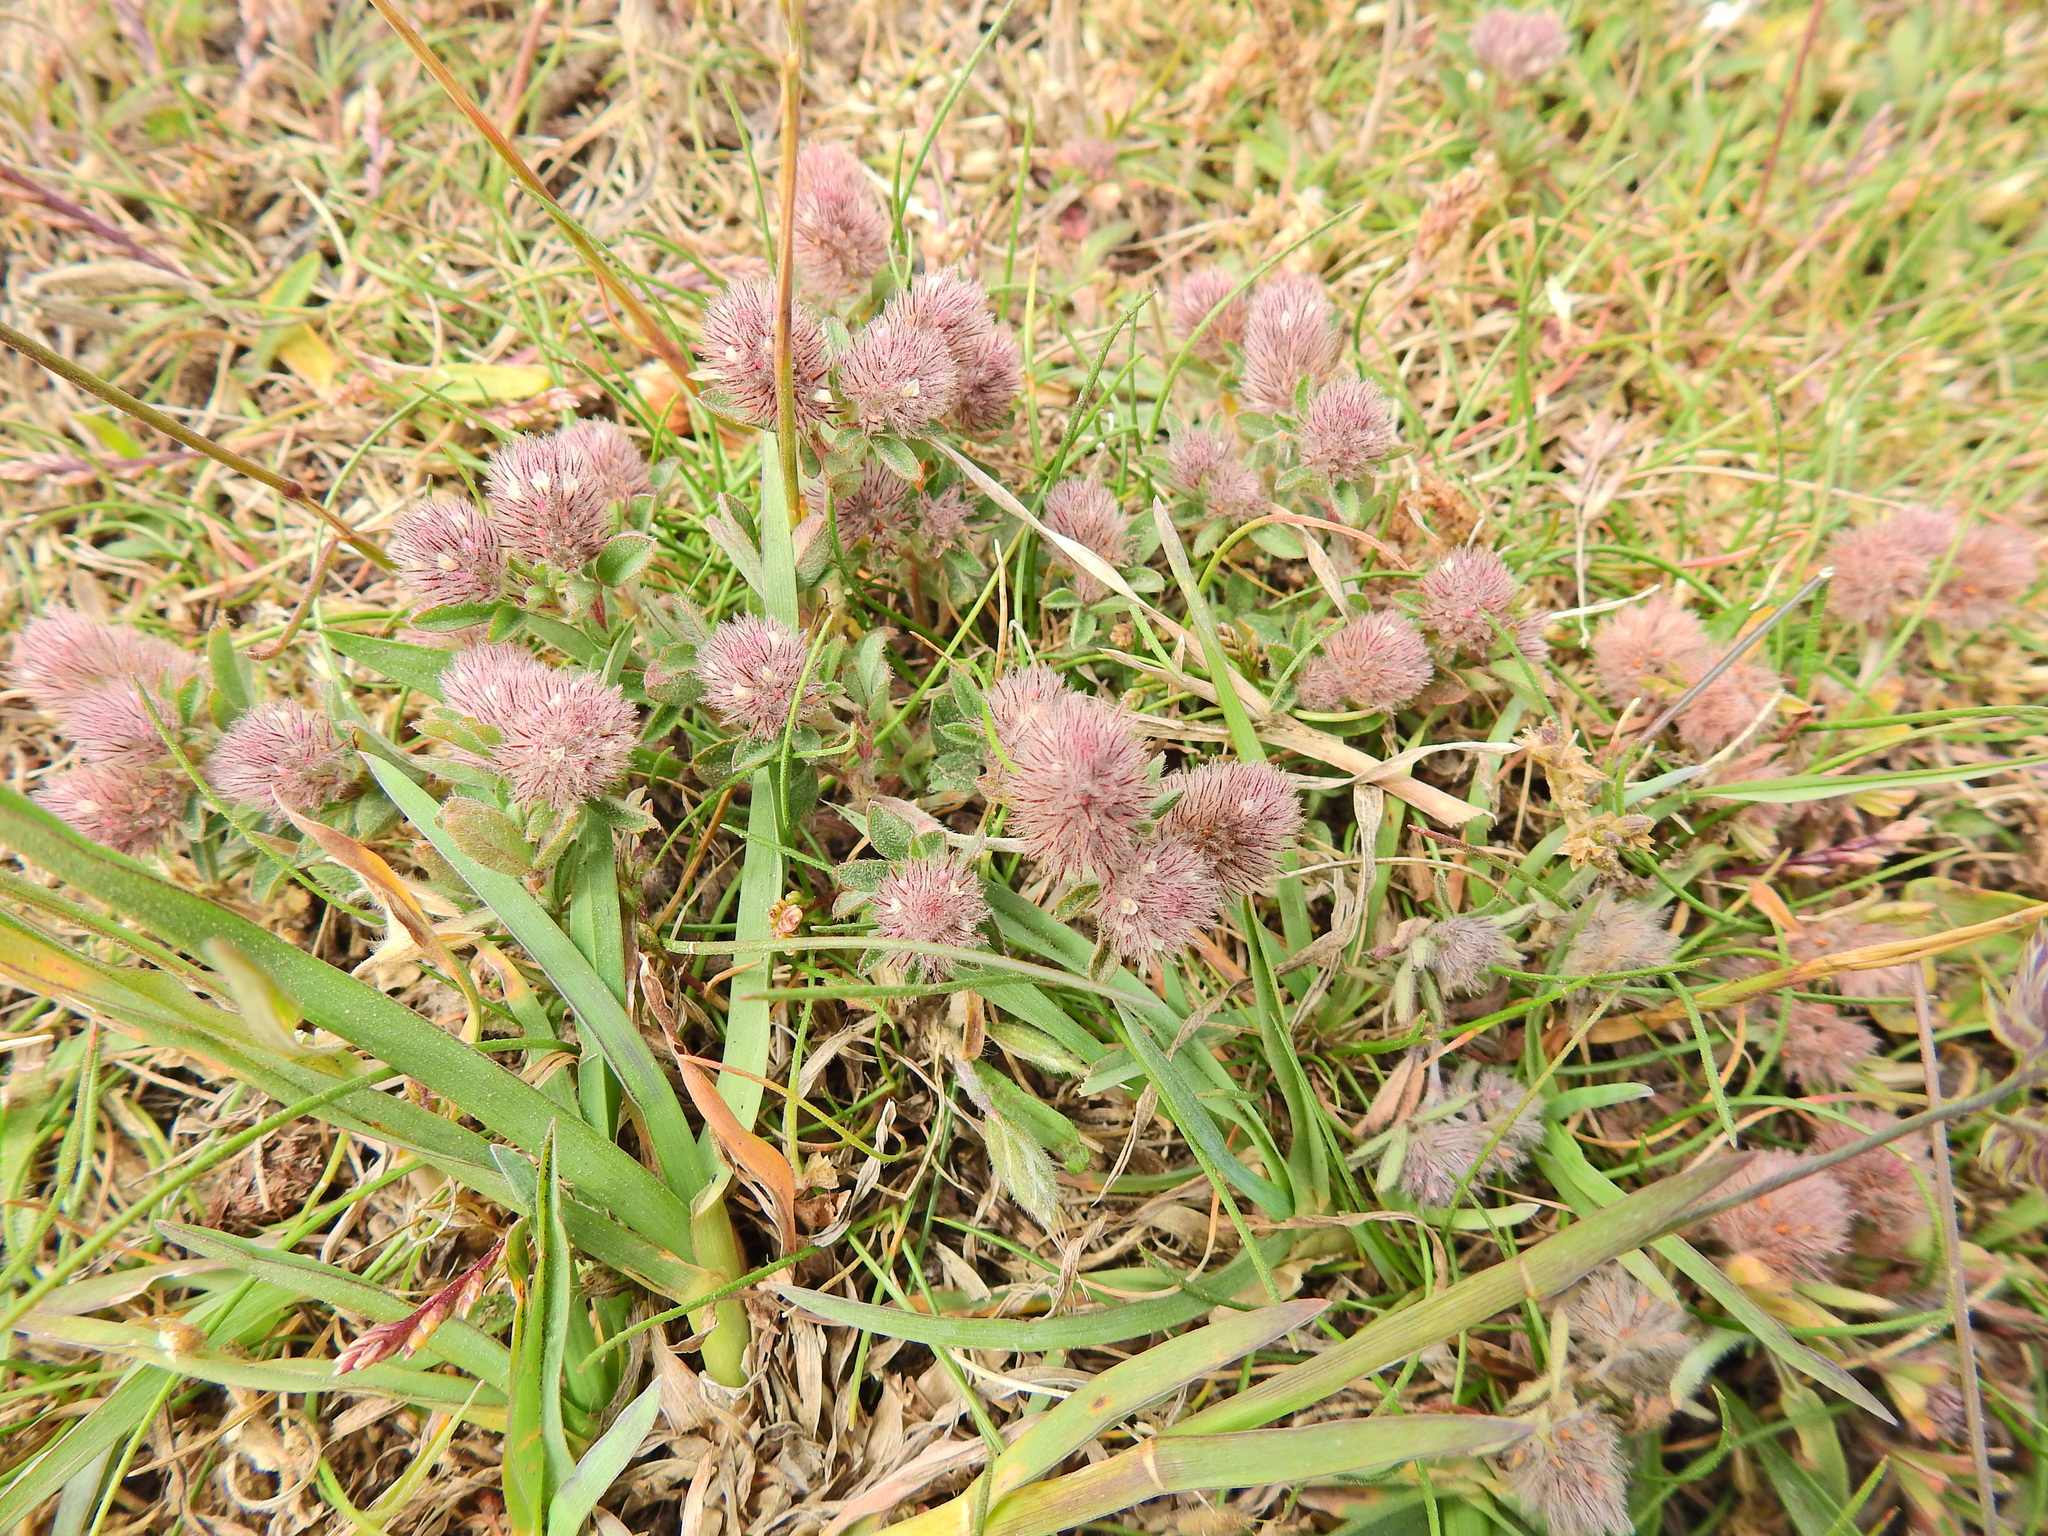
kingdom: Plantae
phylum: Tracheophyta
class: Magnoliopsida
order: Fabales
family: Fabaceae
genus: Trifolium
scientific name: Trifolium arvense
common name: Hare's-foot clover
